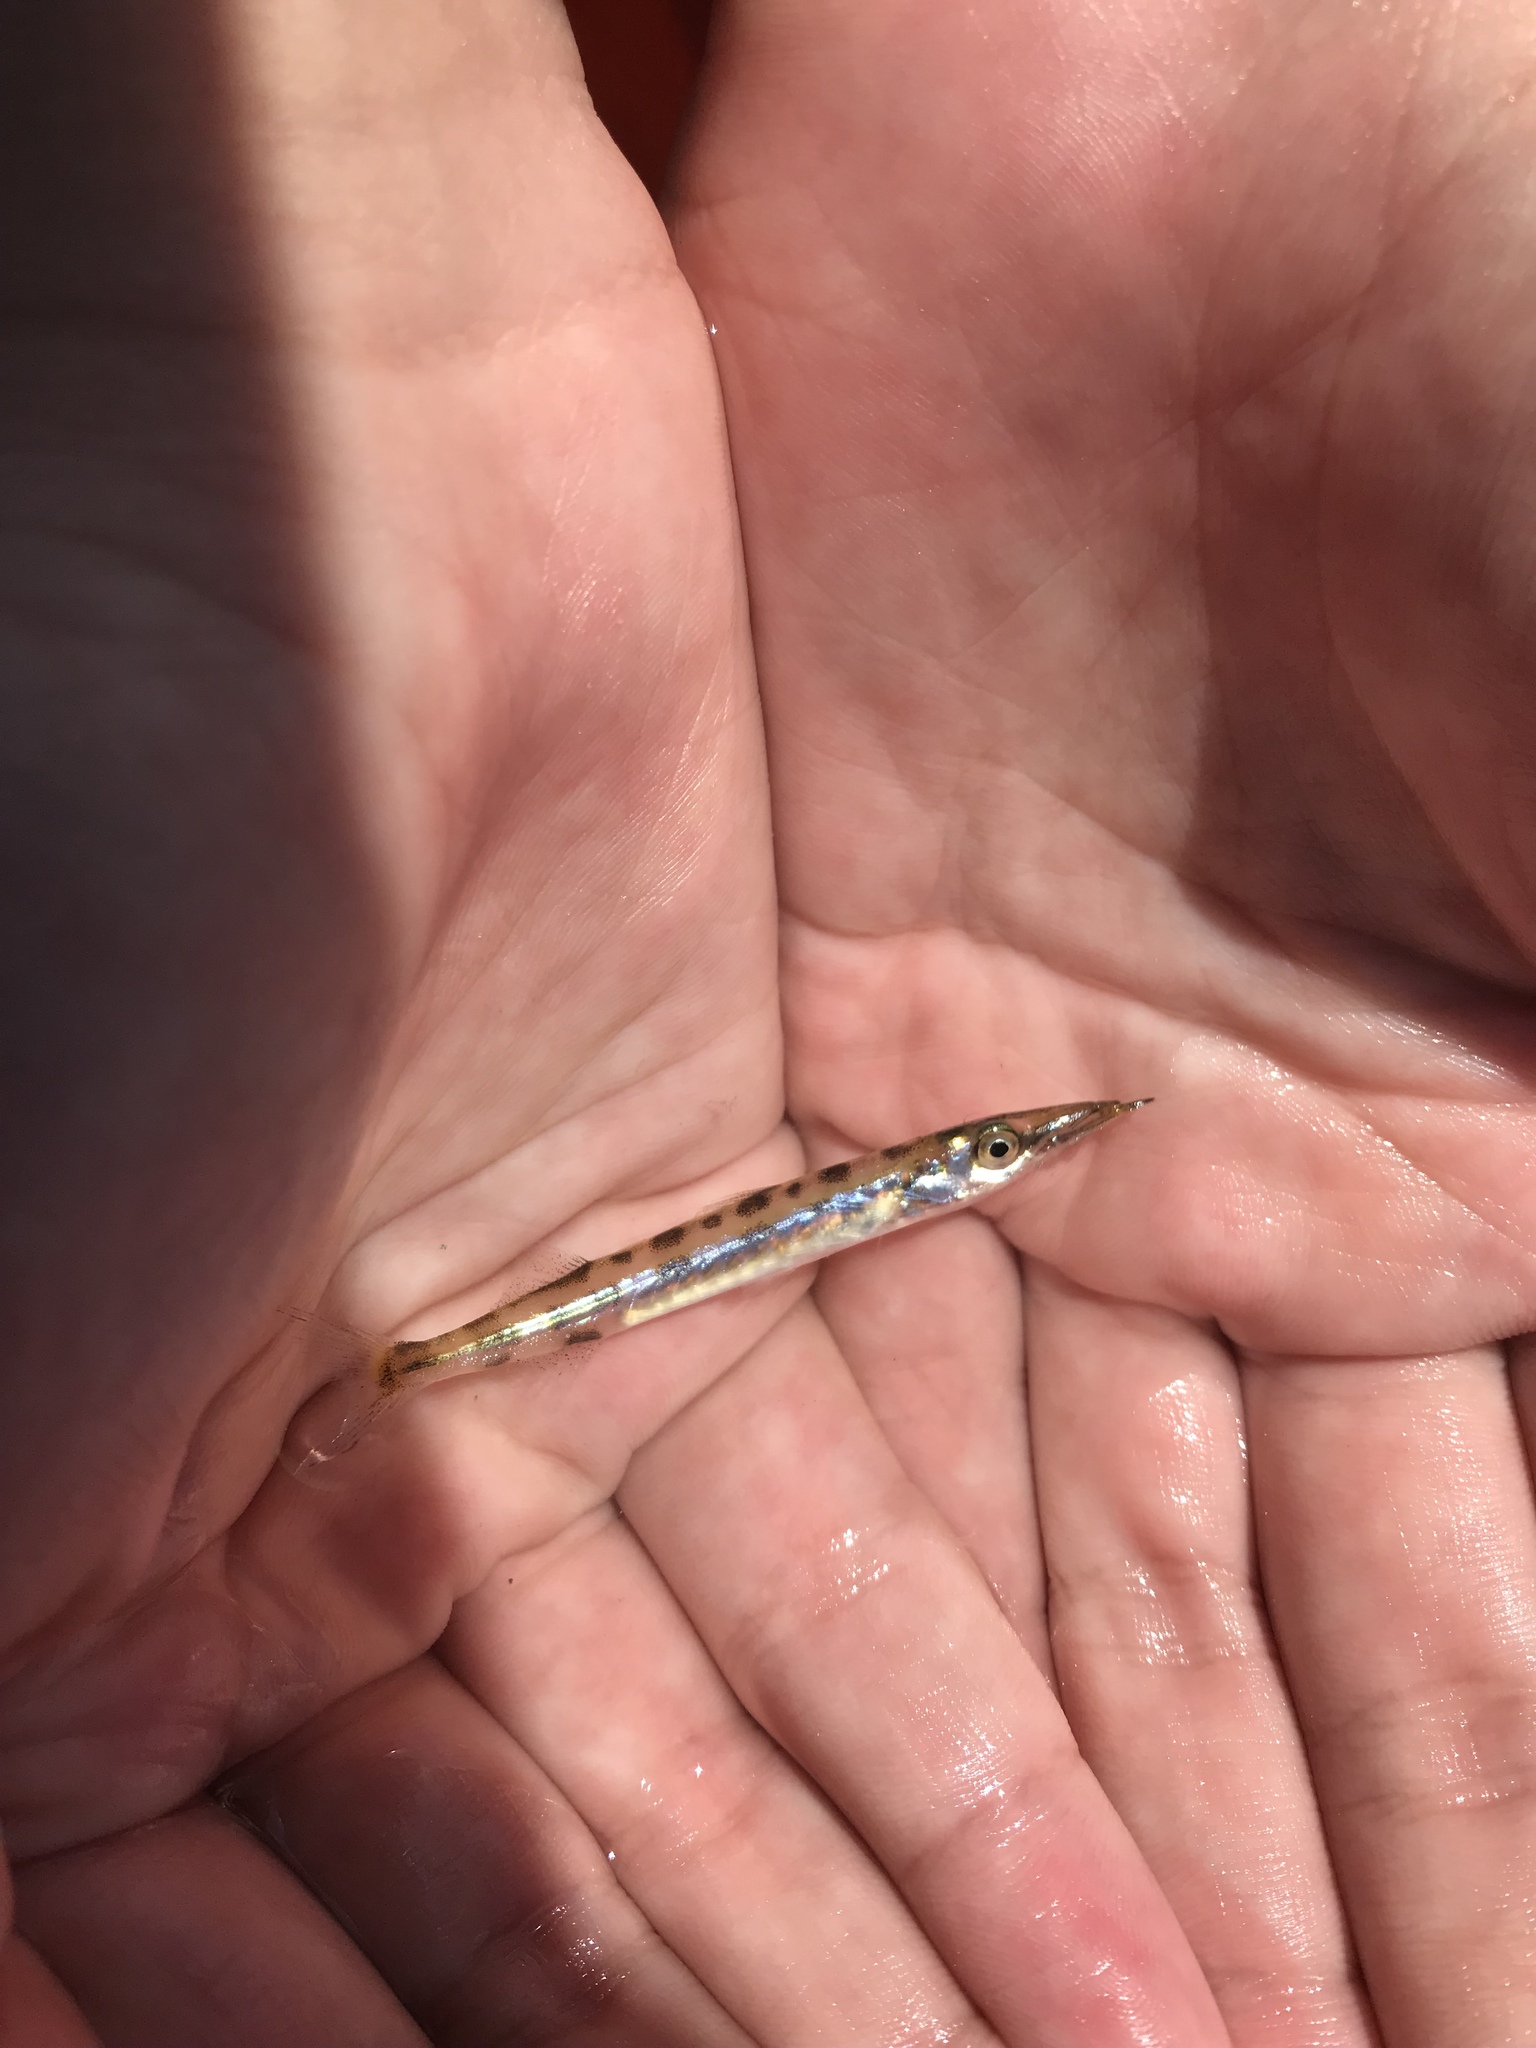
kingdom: Animalia
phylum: Chordata
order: Perciformes
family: Sphyraenidae
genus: Sphyraena
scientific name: Sphyraena borealis
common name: Northern sennet
